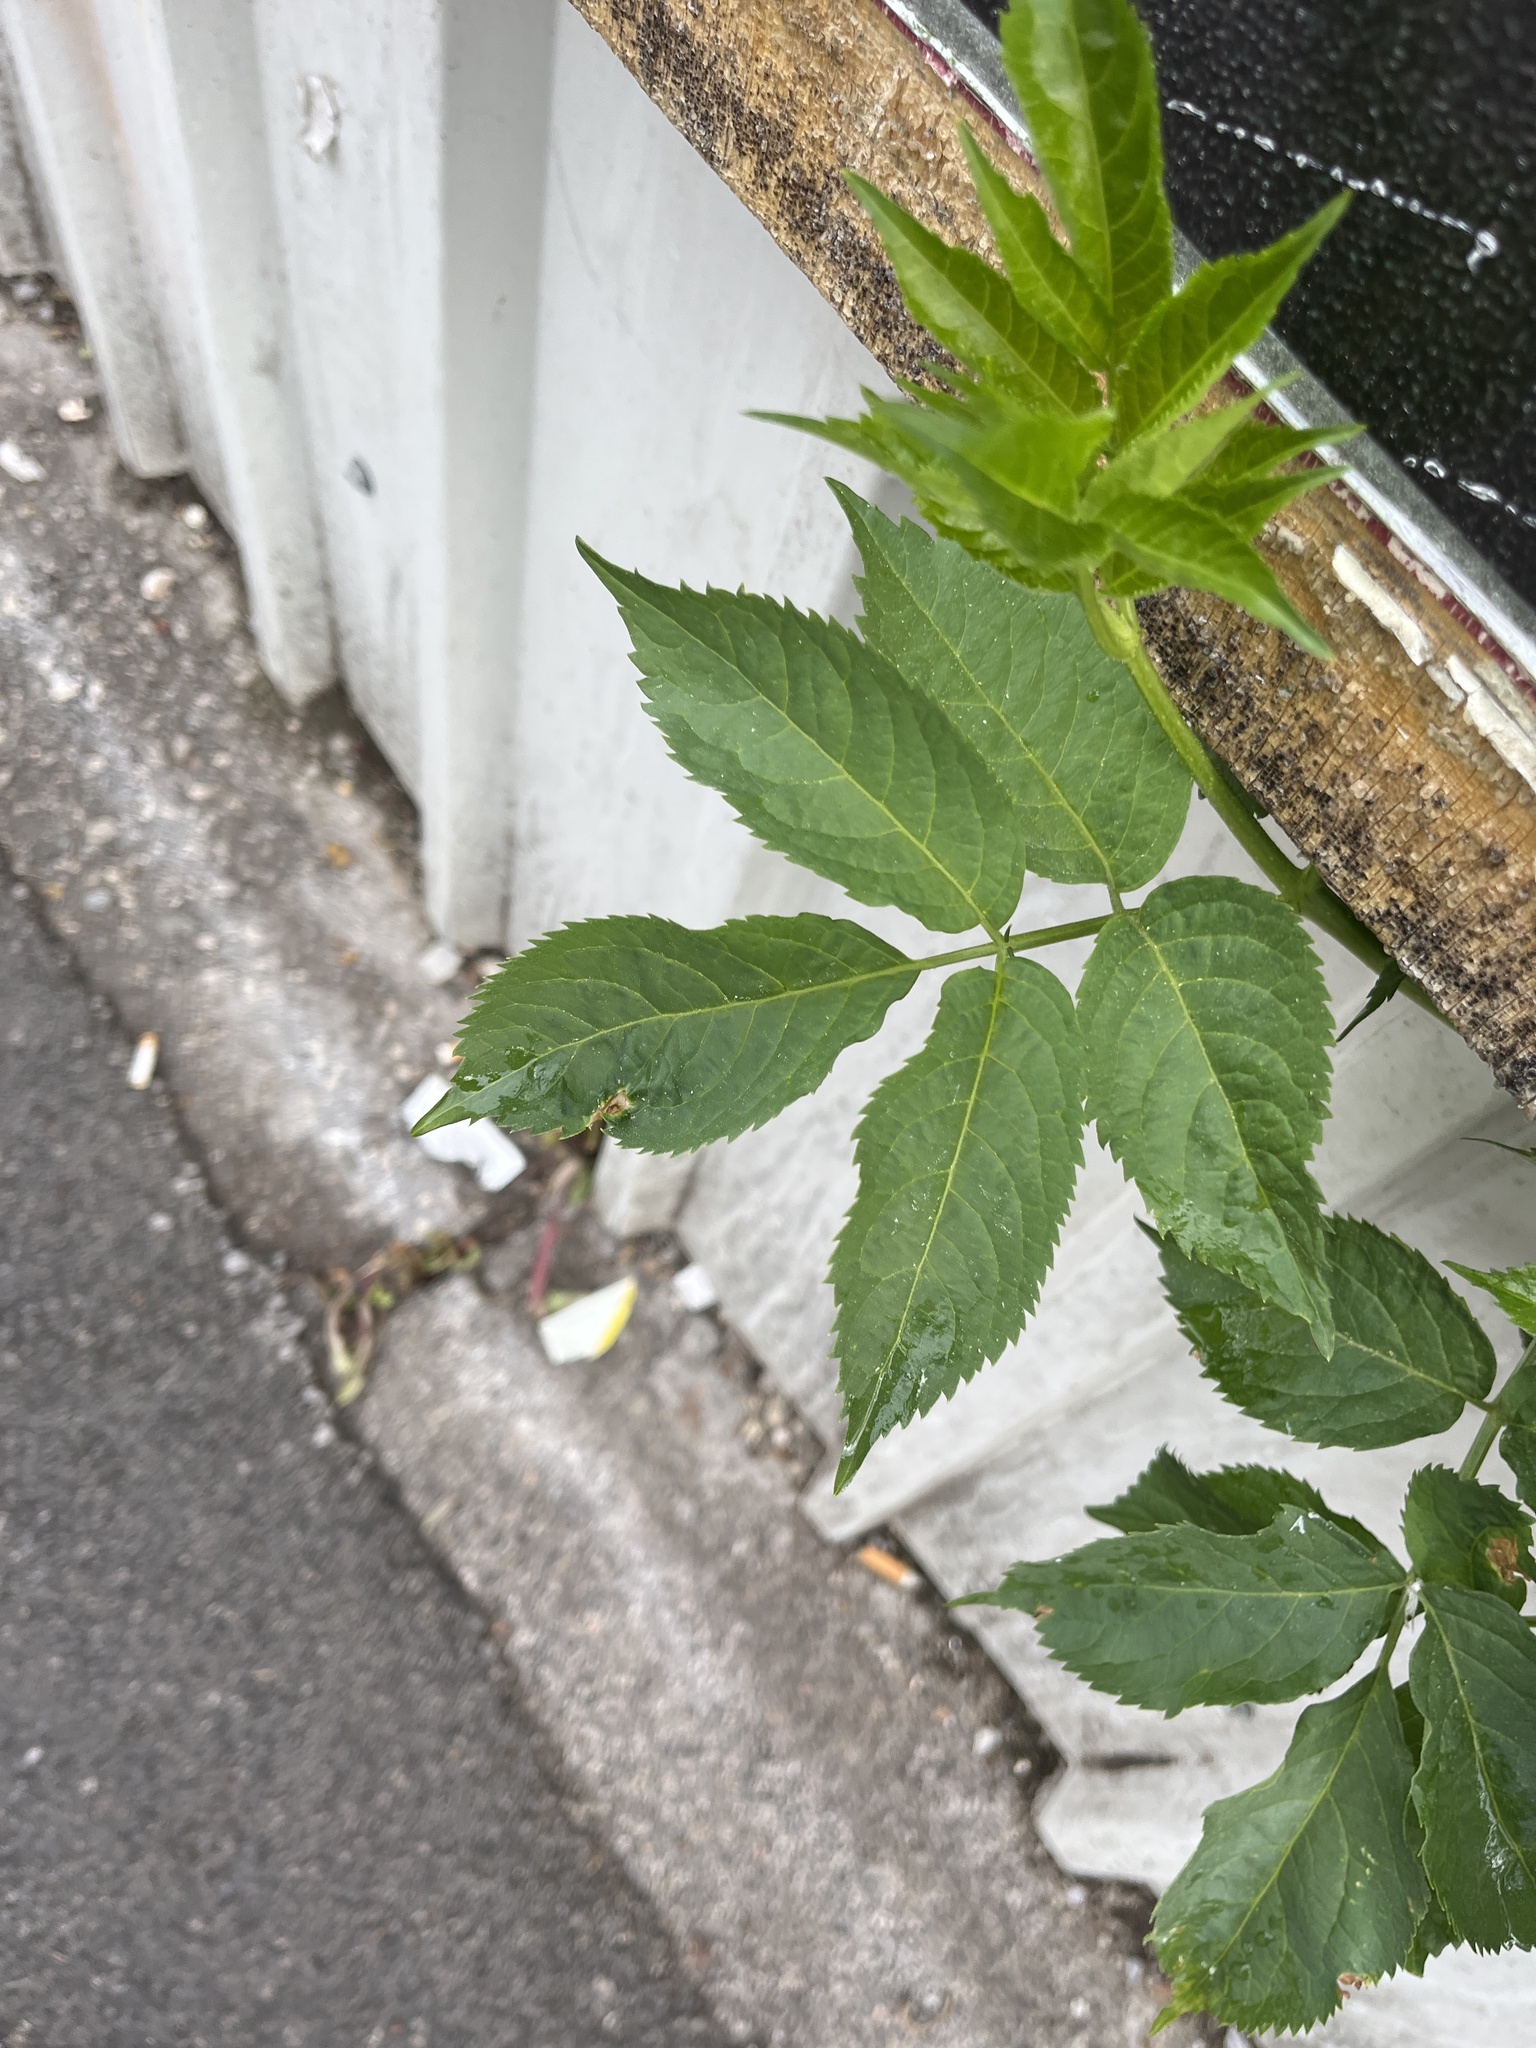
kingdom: Plantae
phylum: Tracheophyta
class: Magnoliopsida
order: Dipsacales
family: Viburnaceae
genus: Sambucus
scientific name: Sambucus nigra
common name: Elder
